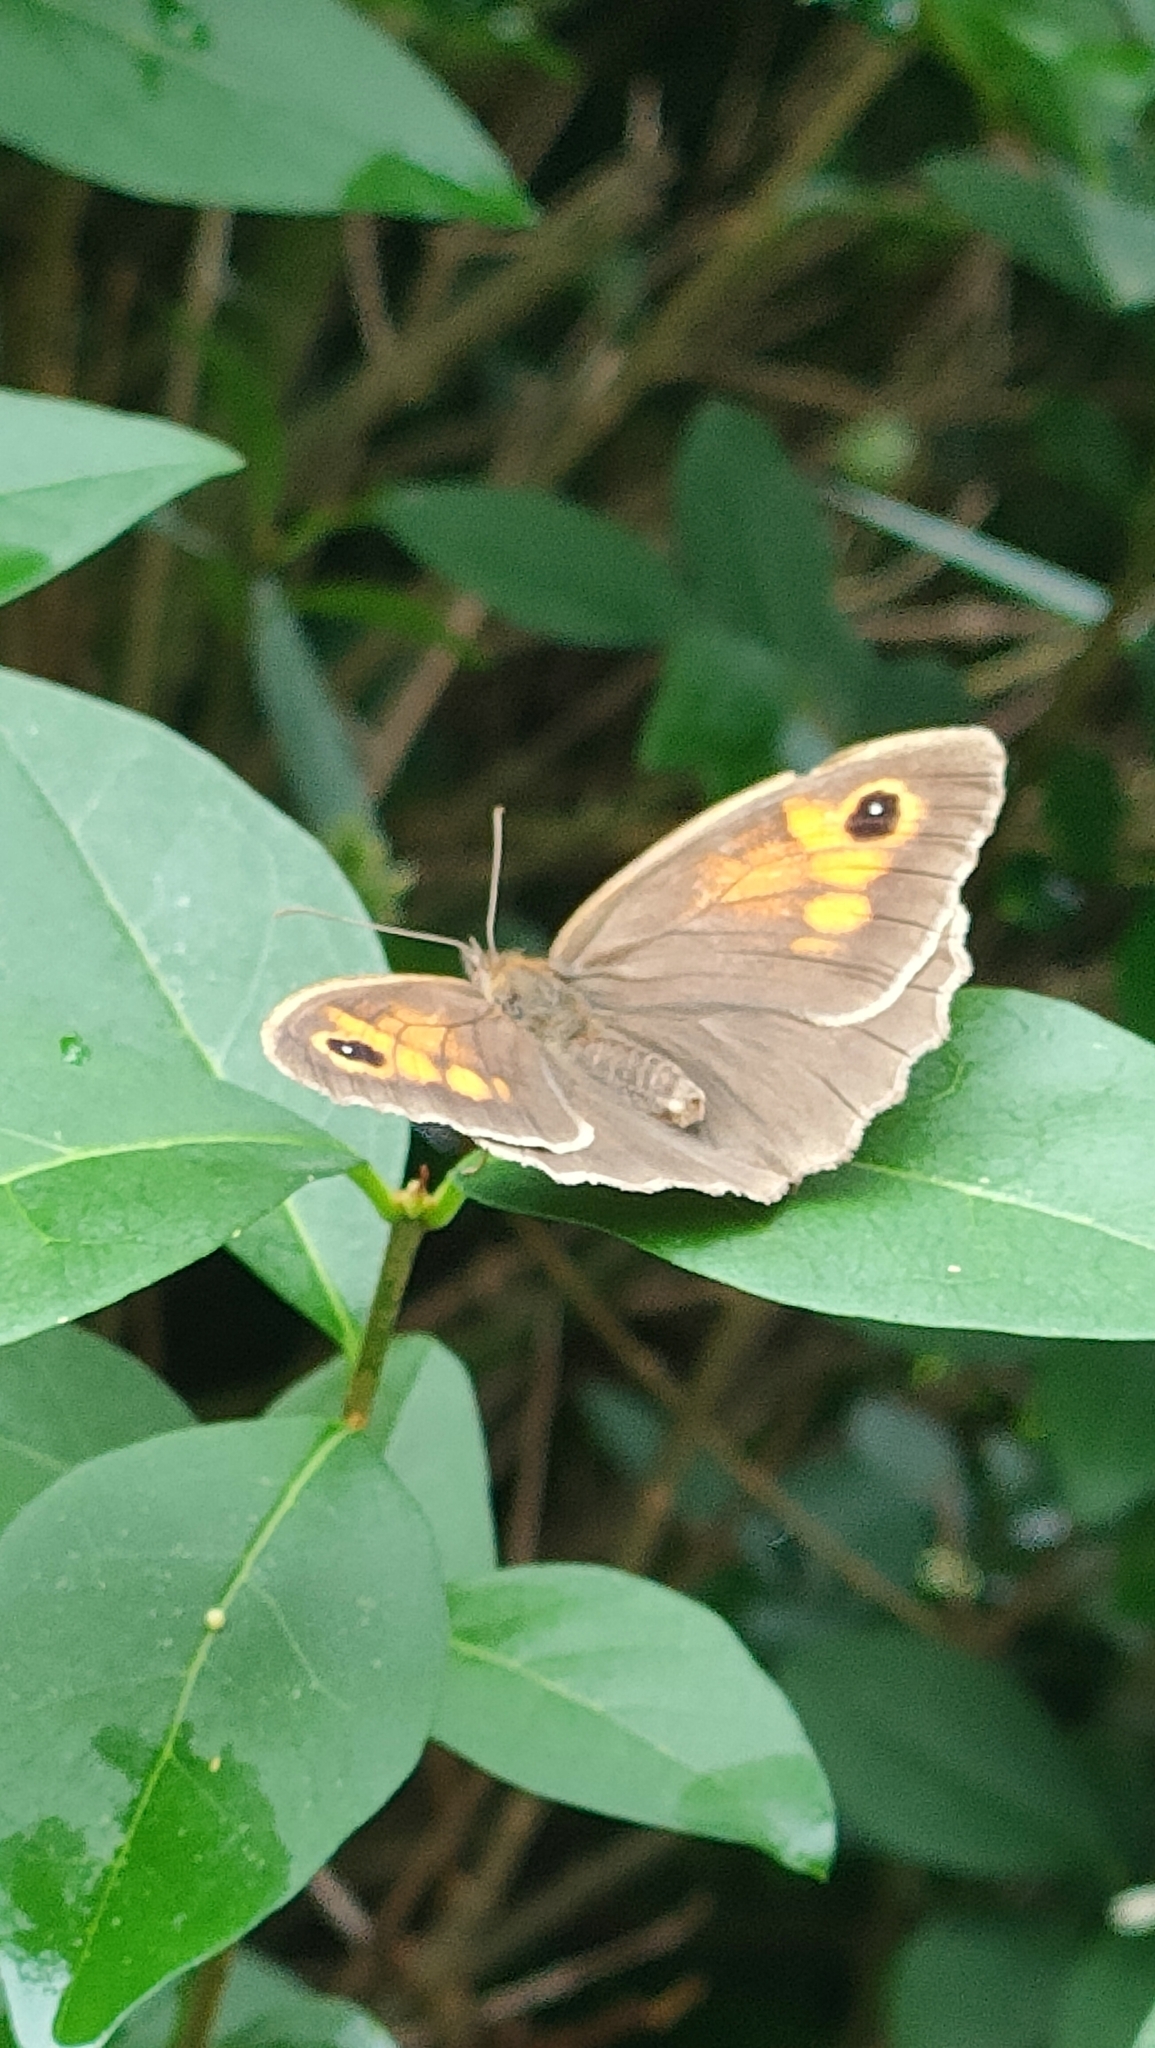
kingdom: Animalia
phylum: Arthropoda
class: Insecta
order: Lepidoptera
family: Nymphalidae
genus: Maniola
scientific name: Maniola jurtina
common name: Meadow brown
